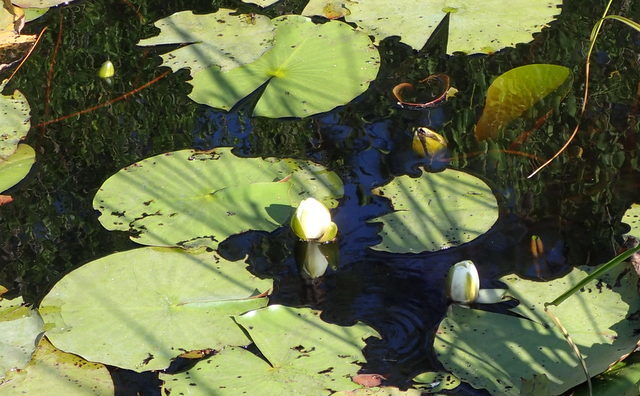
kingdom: Plantae
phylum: Tracheophyta
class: Magnoliopsida
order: Nymphaeales
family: Nymphaeaceae
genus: Nymphaea
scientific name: Nymphaea odorata
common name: Fragrant water-lily
